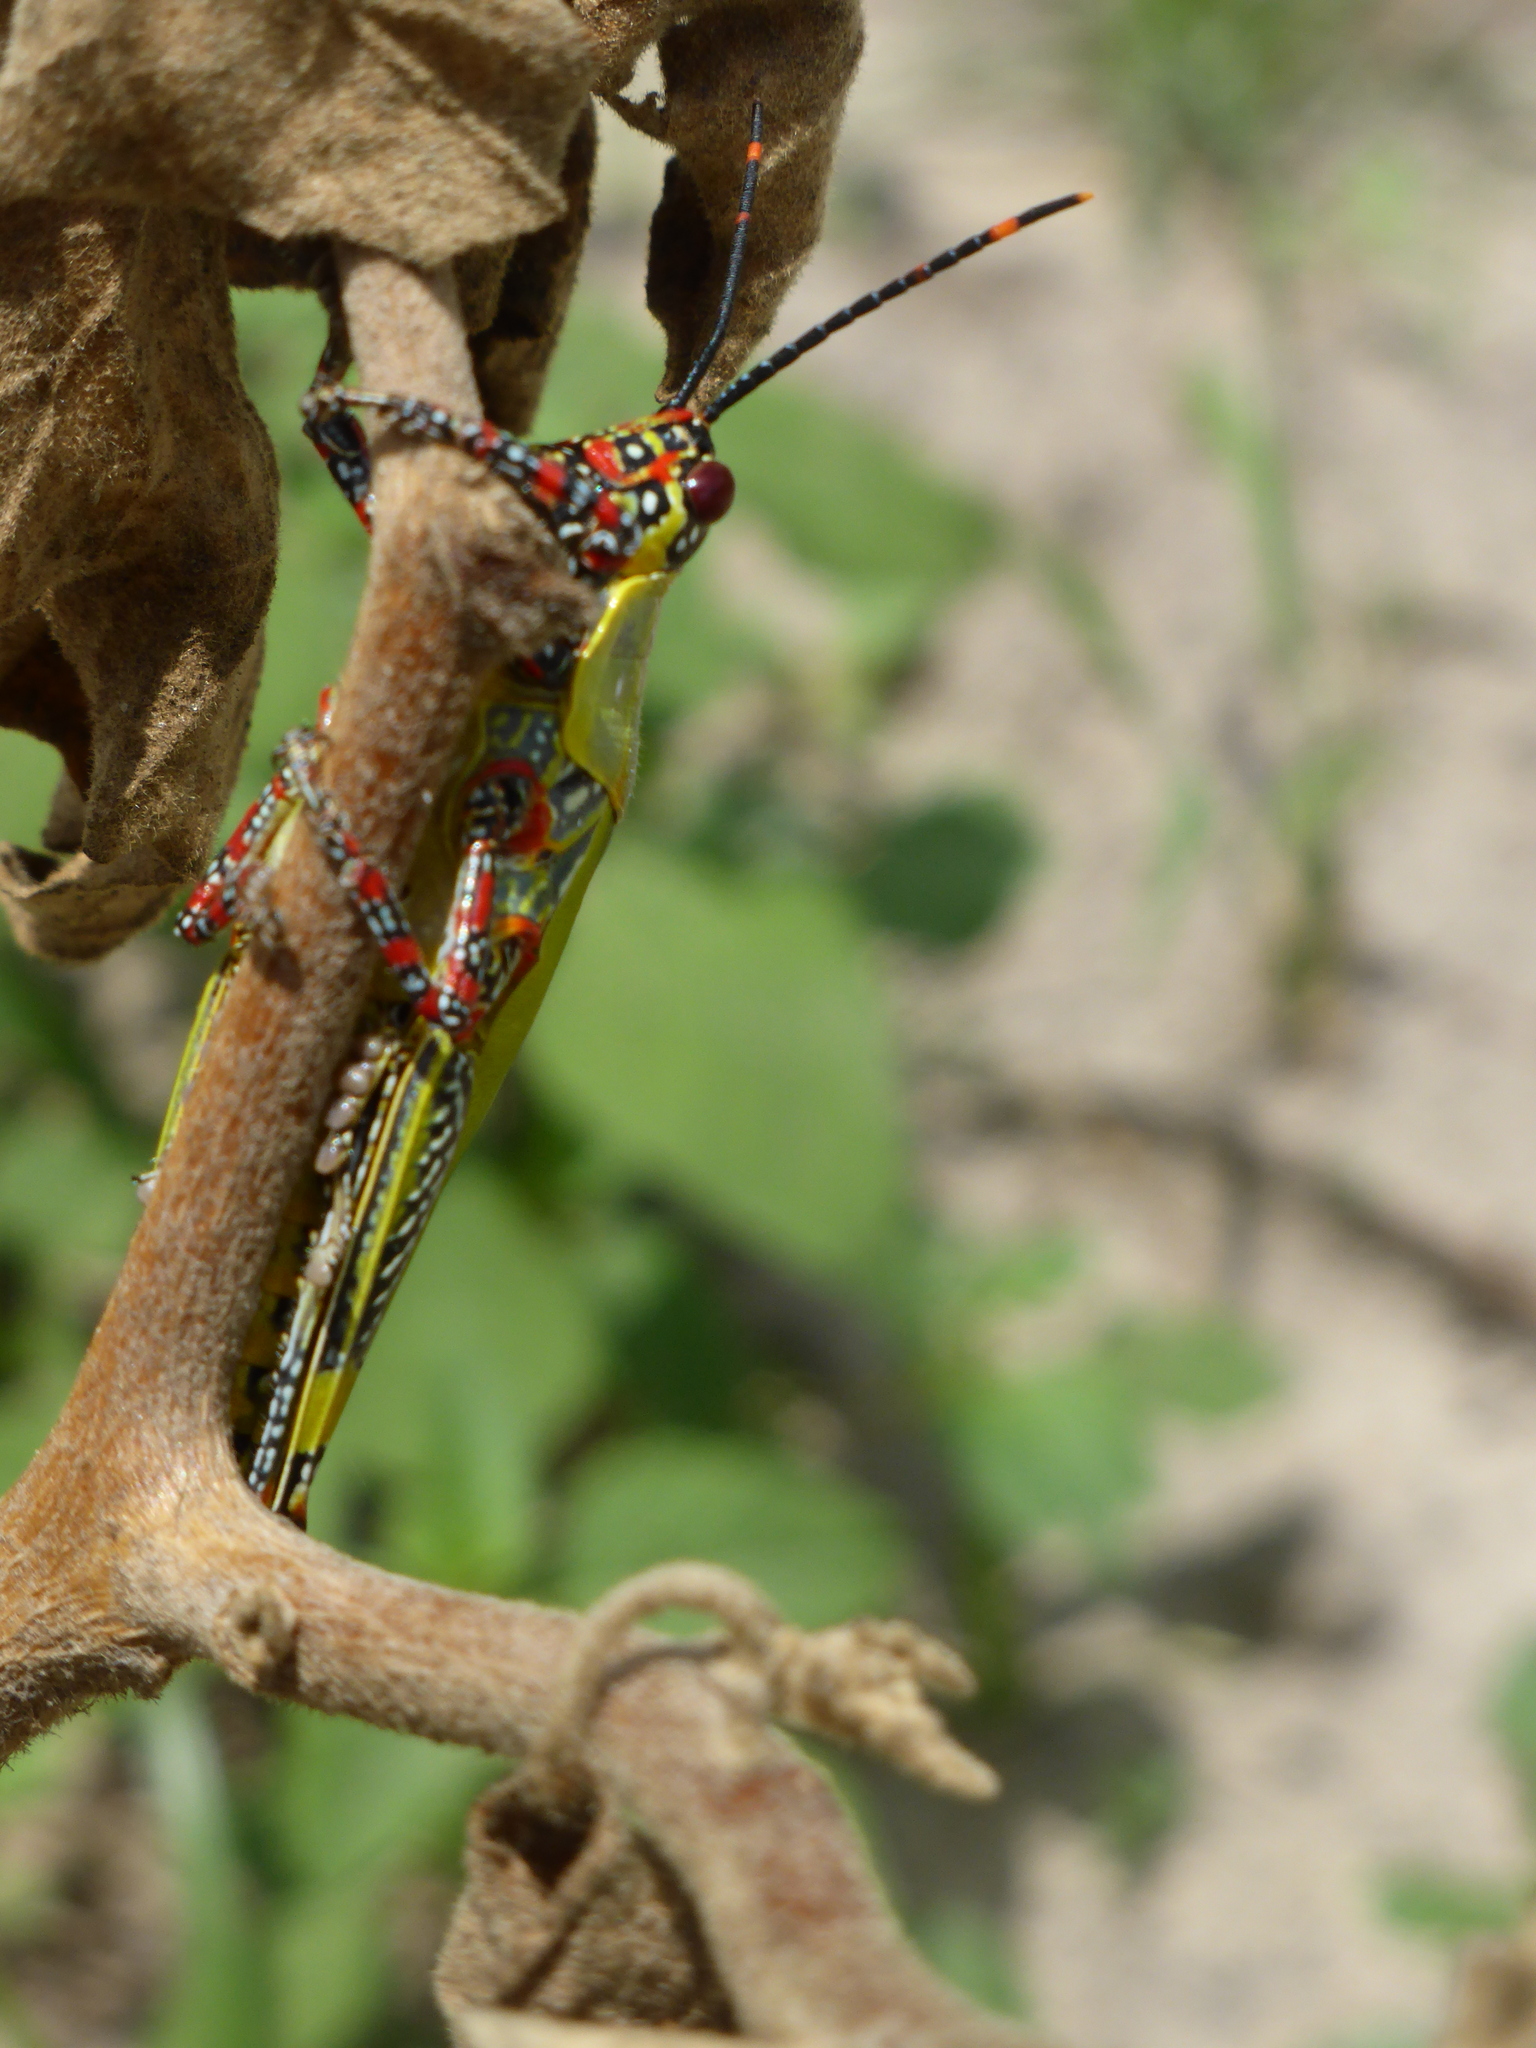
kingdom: Animalia
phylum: Arthropoda
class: Insecta
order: Orthoptera
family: Pyrgomorphidae
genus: Zonocerus
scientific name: Zonocerus variegatus
